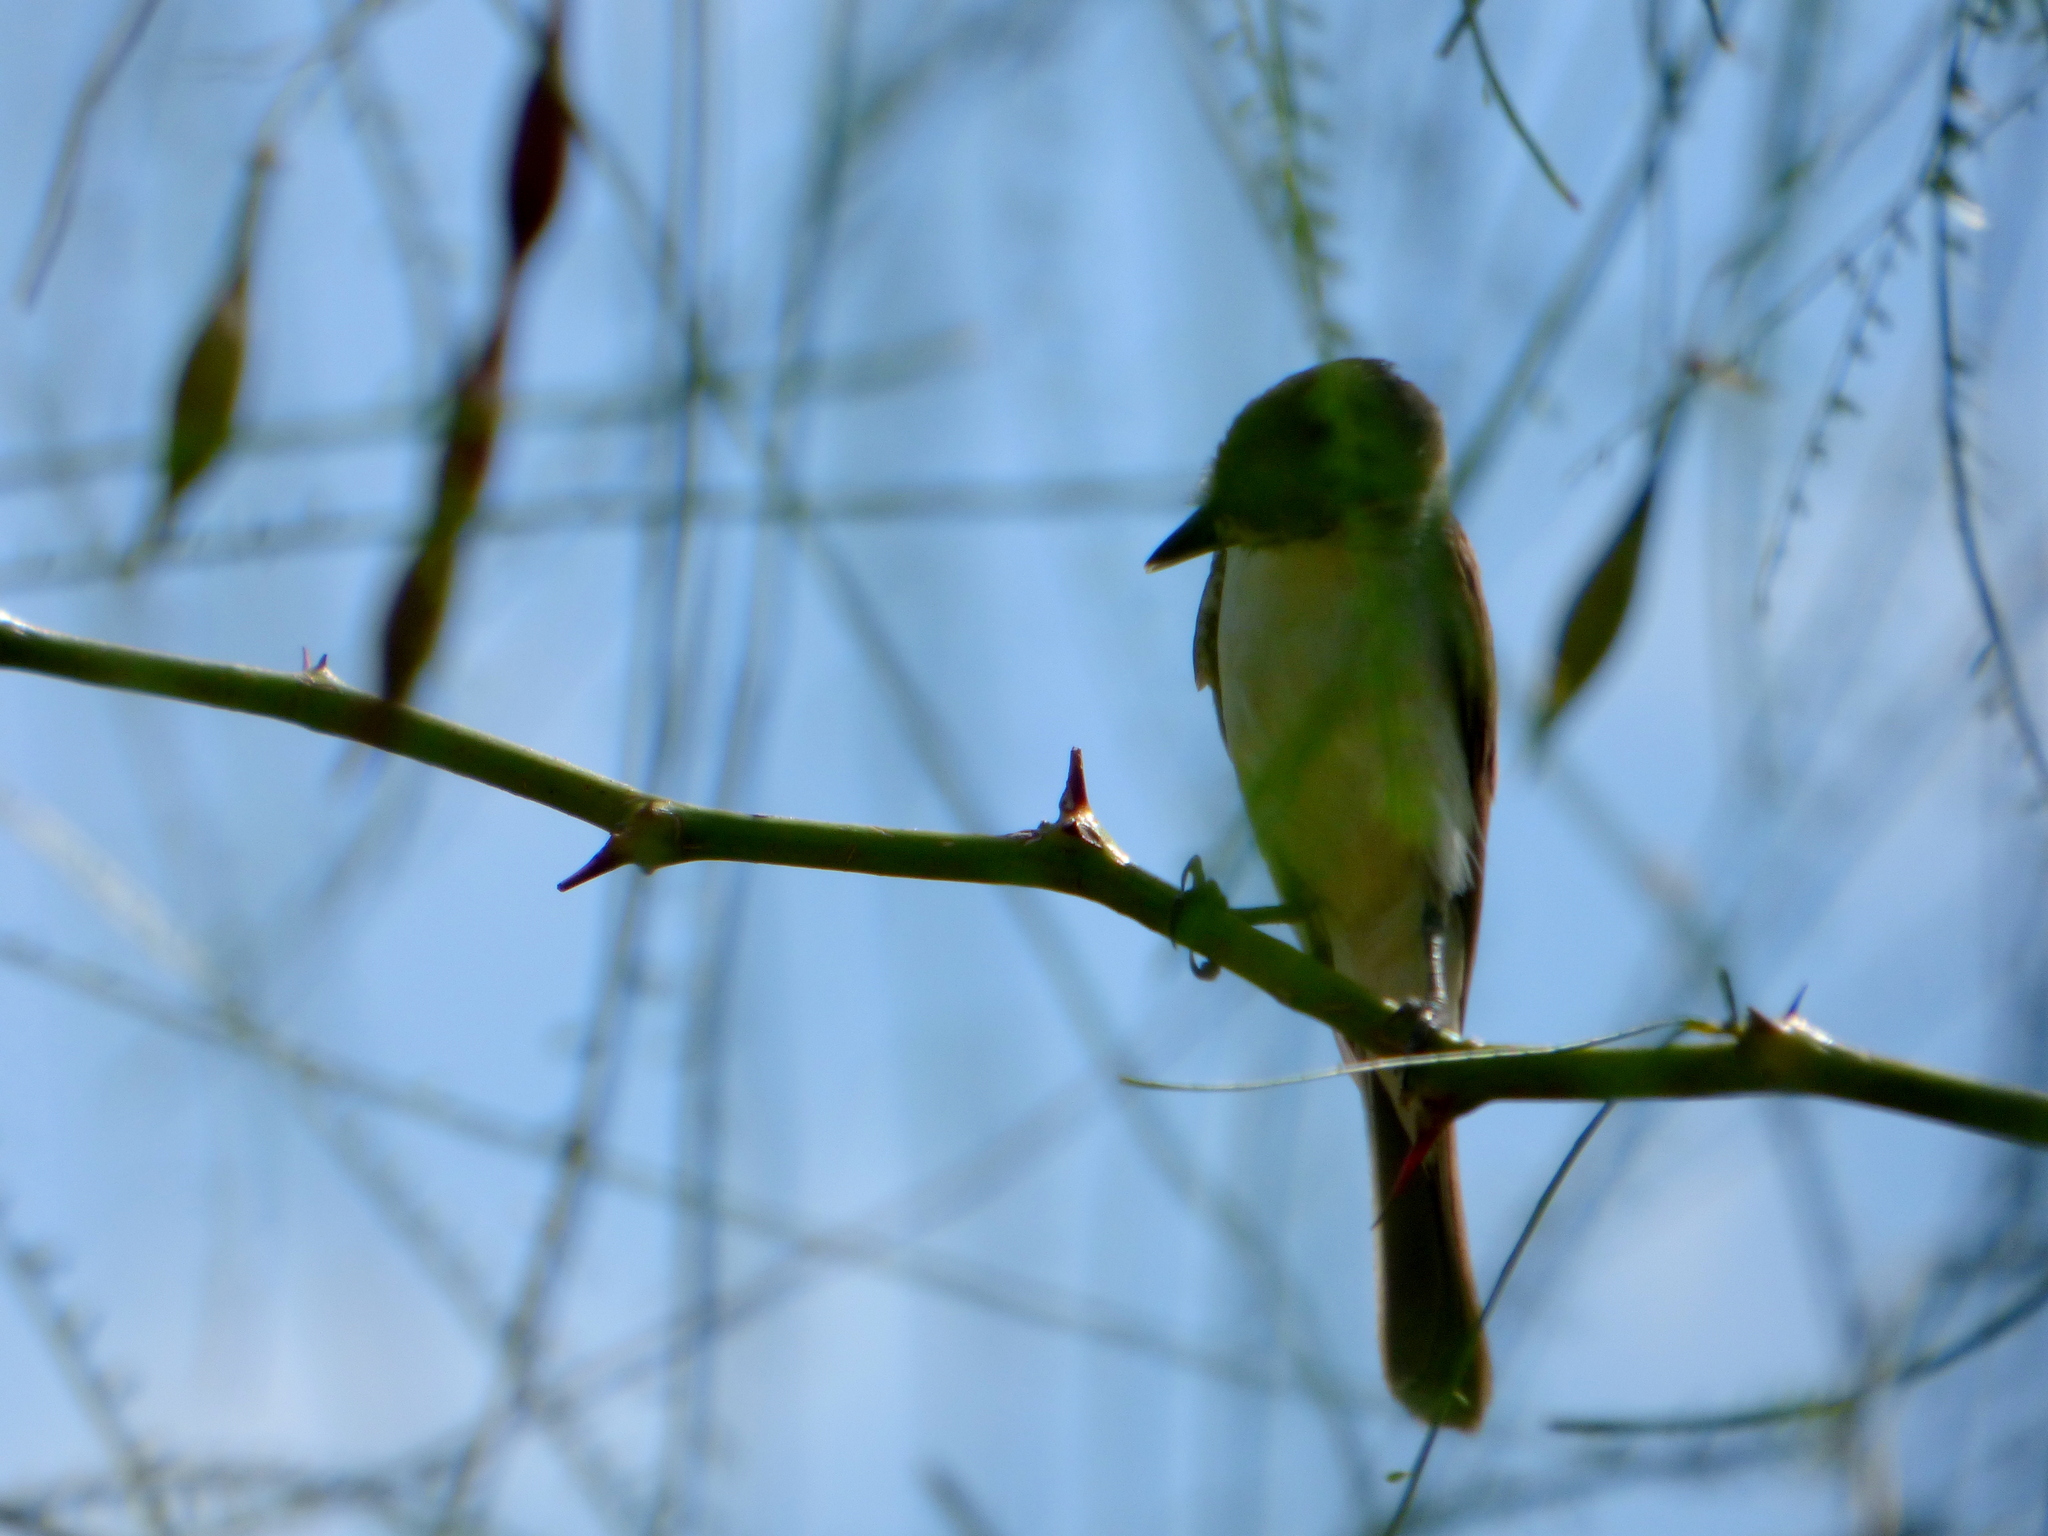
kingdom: Animalia
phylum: Chordata
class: Aves
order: Passeriformes
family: Cotingidae
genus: Xenopsaris
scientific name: Xenopsaris albinucha
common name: White-naped xenopsaris
